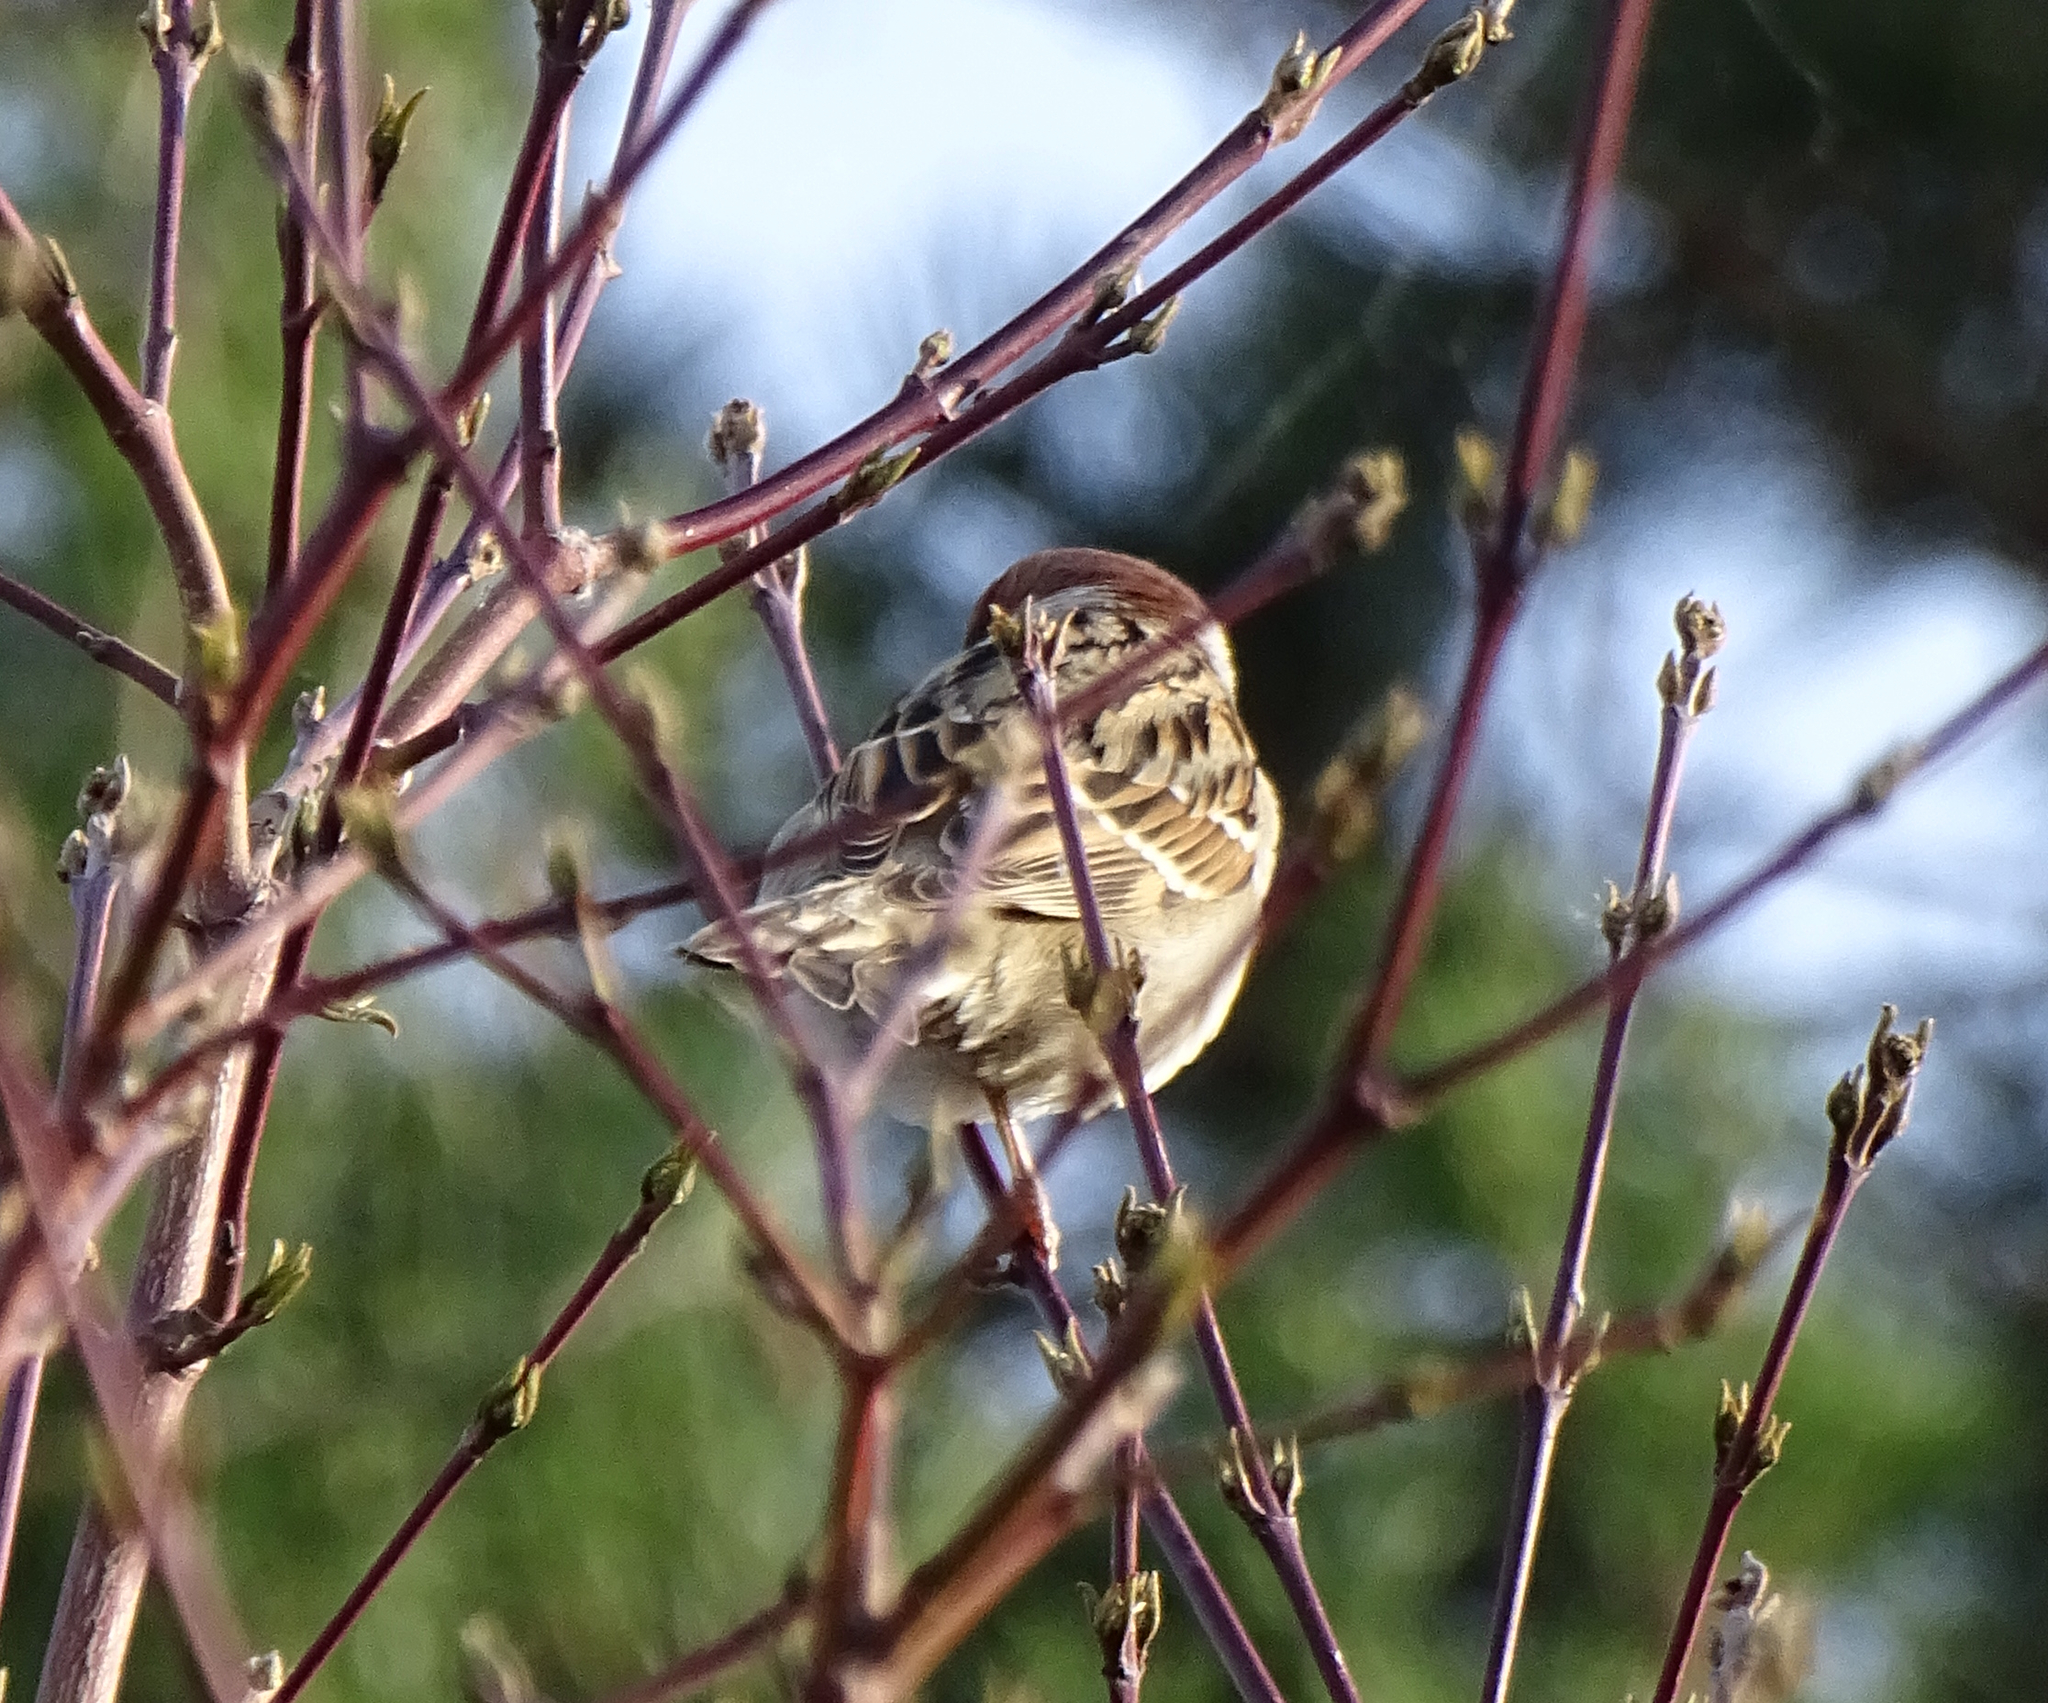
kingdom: Animalia
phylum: Chordata
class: Aves
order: Passeriformes
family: Passeridae
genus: Passer
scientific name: Passer montanus
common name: Eurasian tree sparrow
